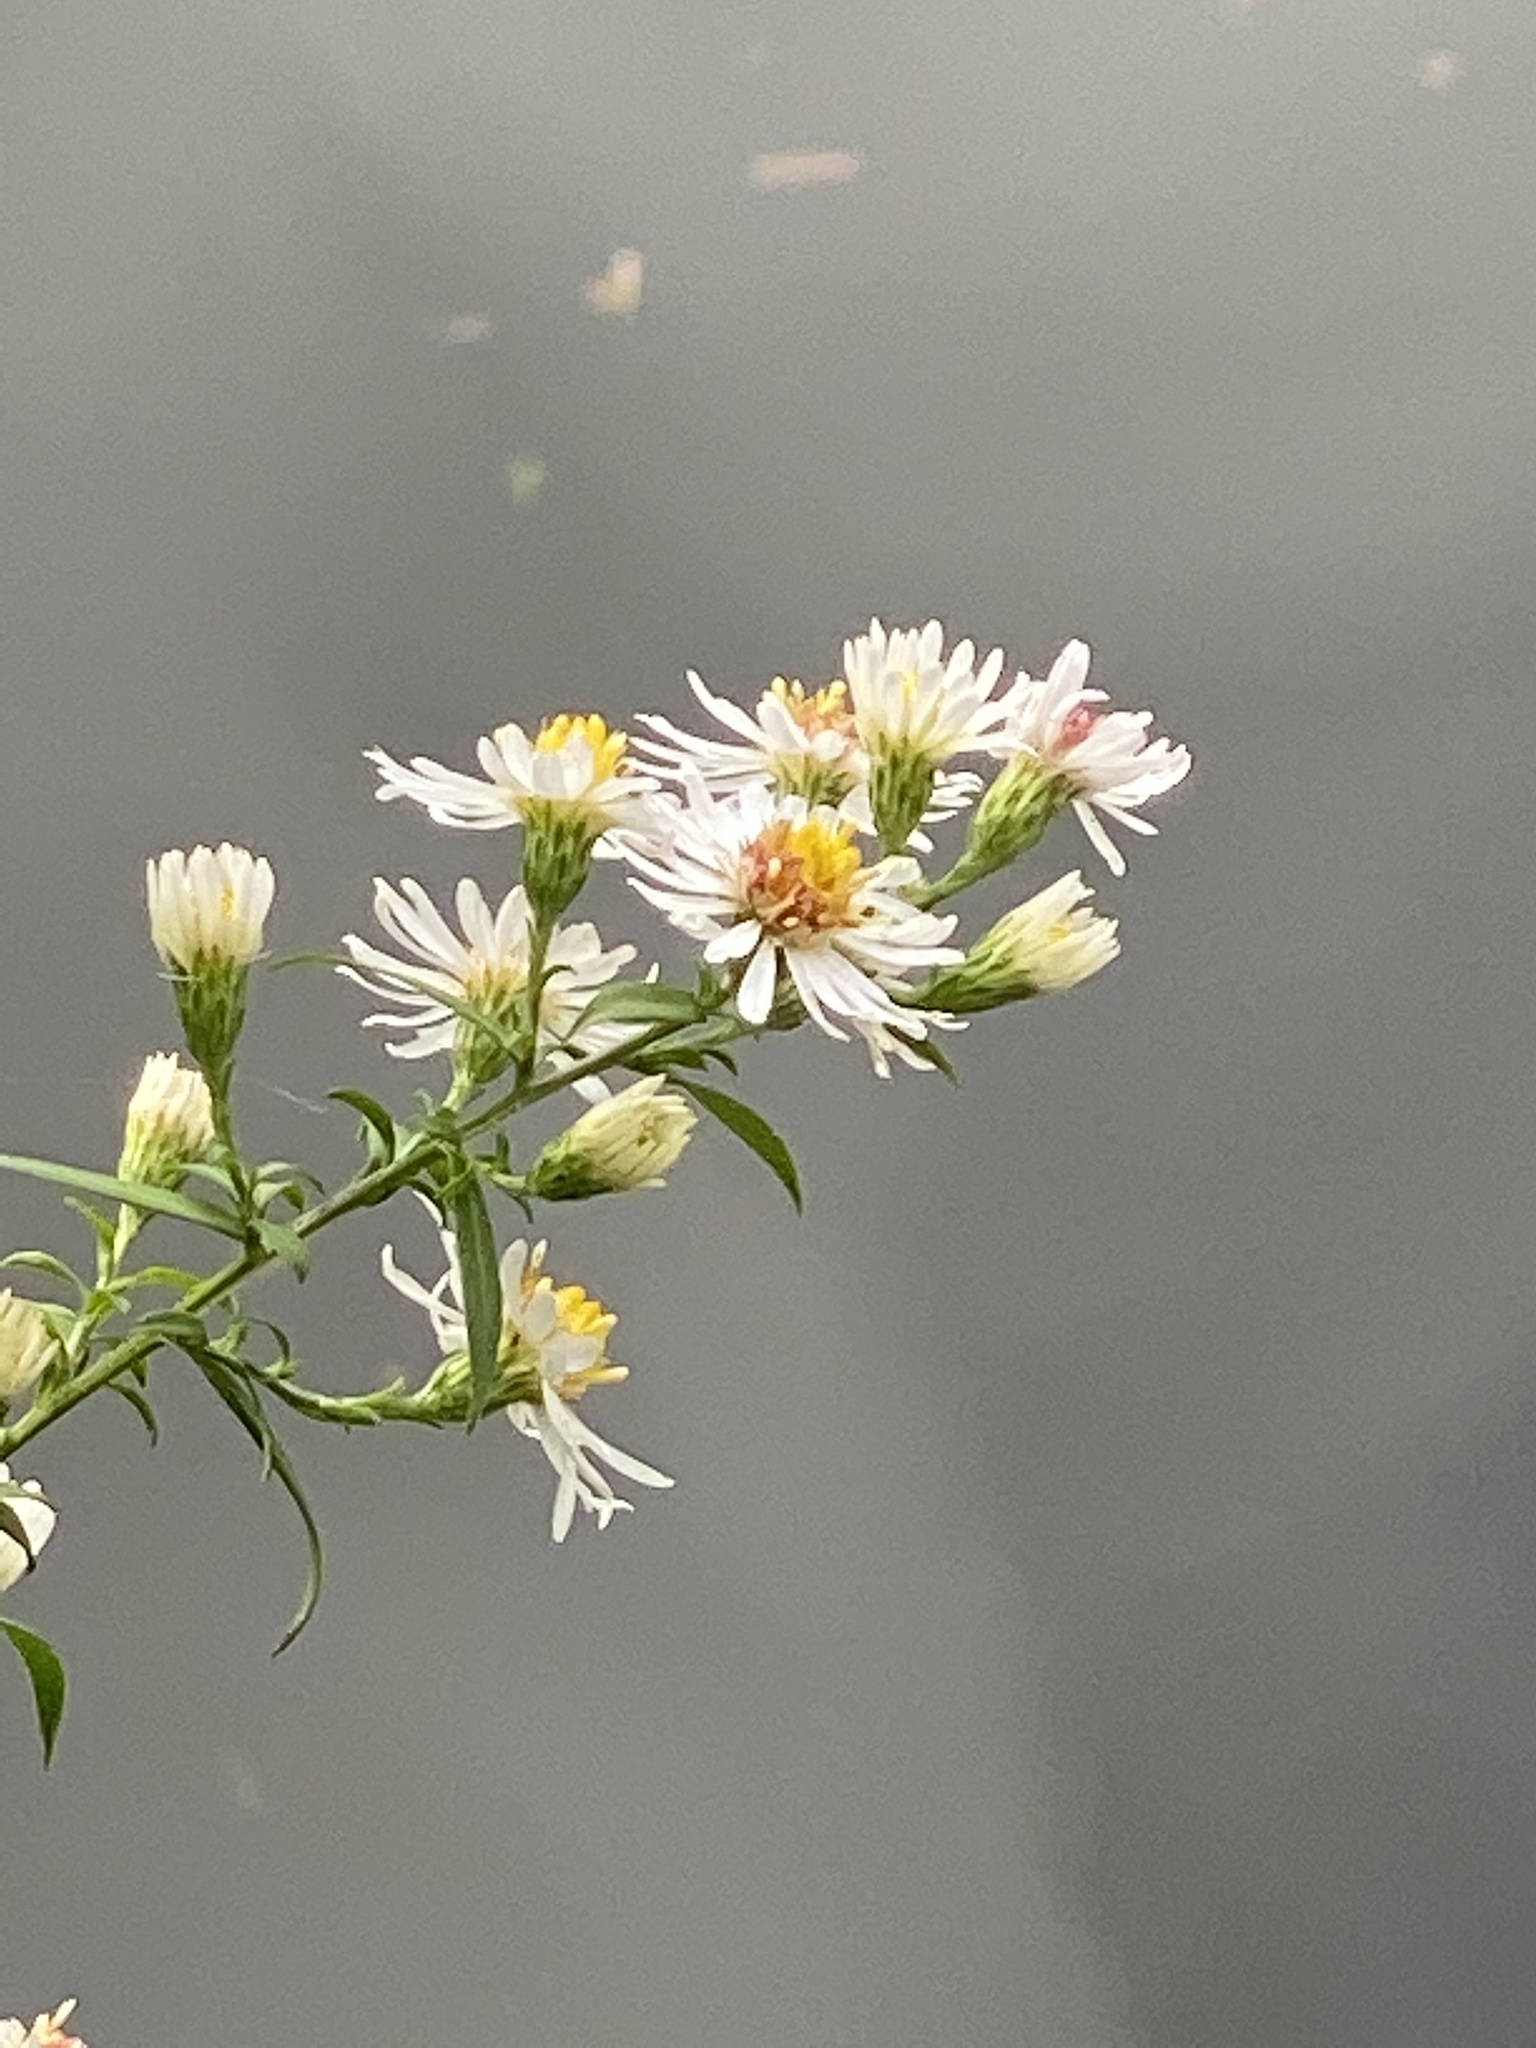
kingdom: Plantae
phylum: Tracheophyta
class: Magnoliopsida
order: Asterales
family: Asteraceae
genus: Symphyotrichum
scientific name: Symphyotrichum lanceolatum
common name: Panicled aster
